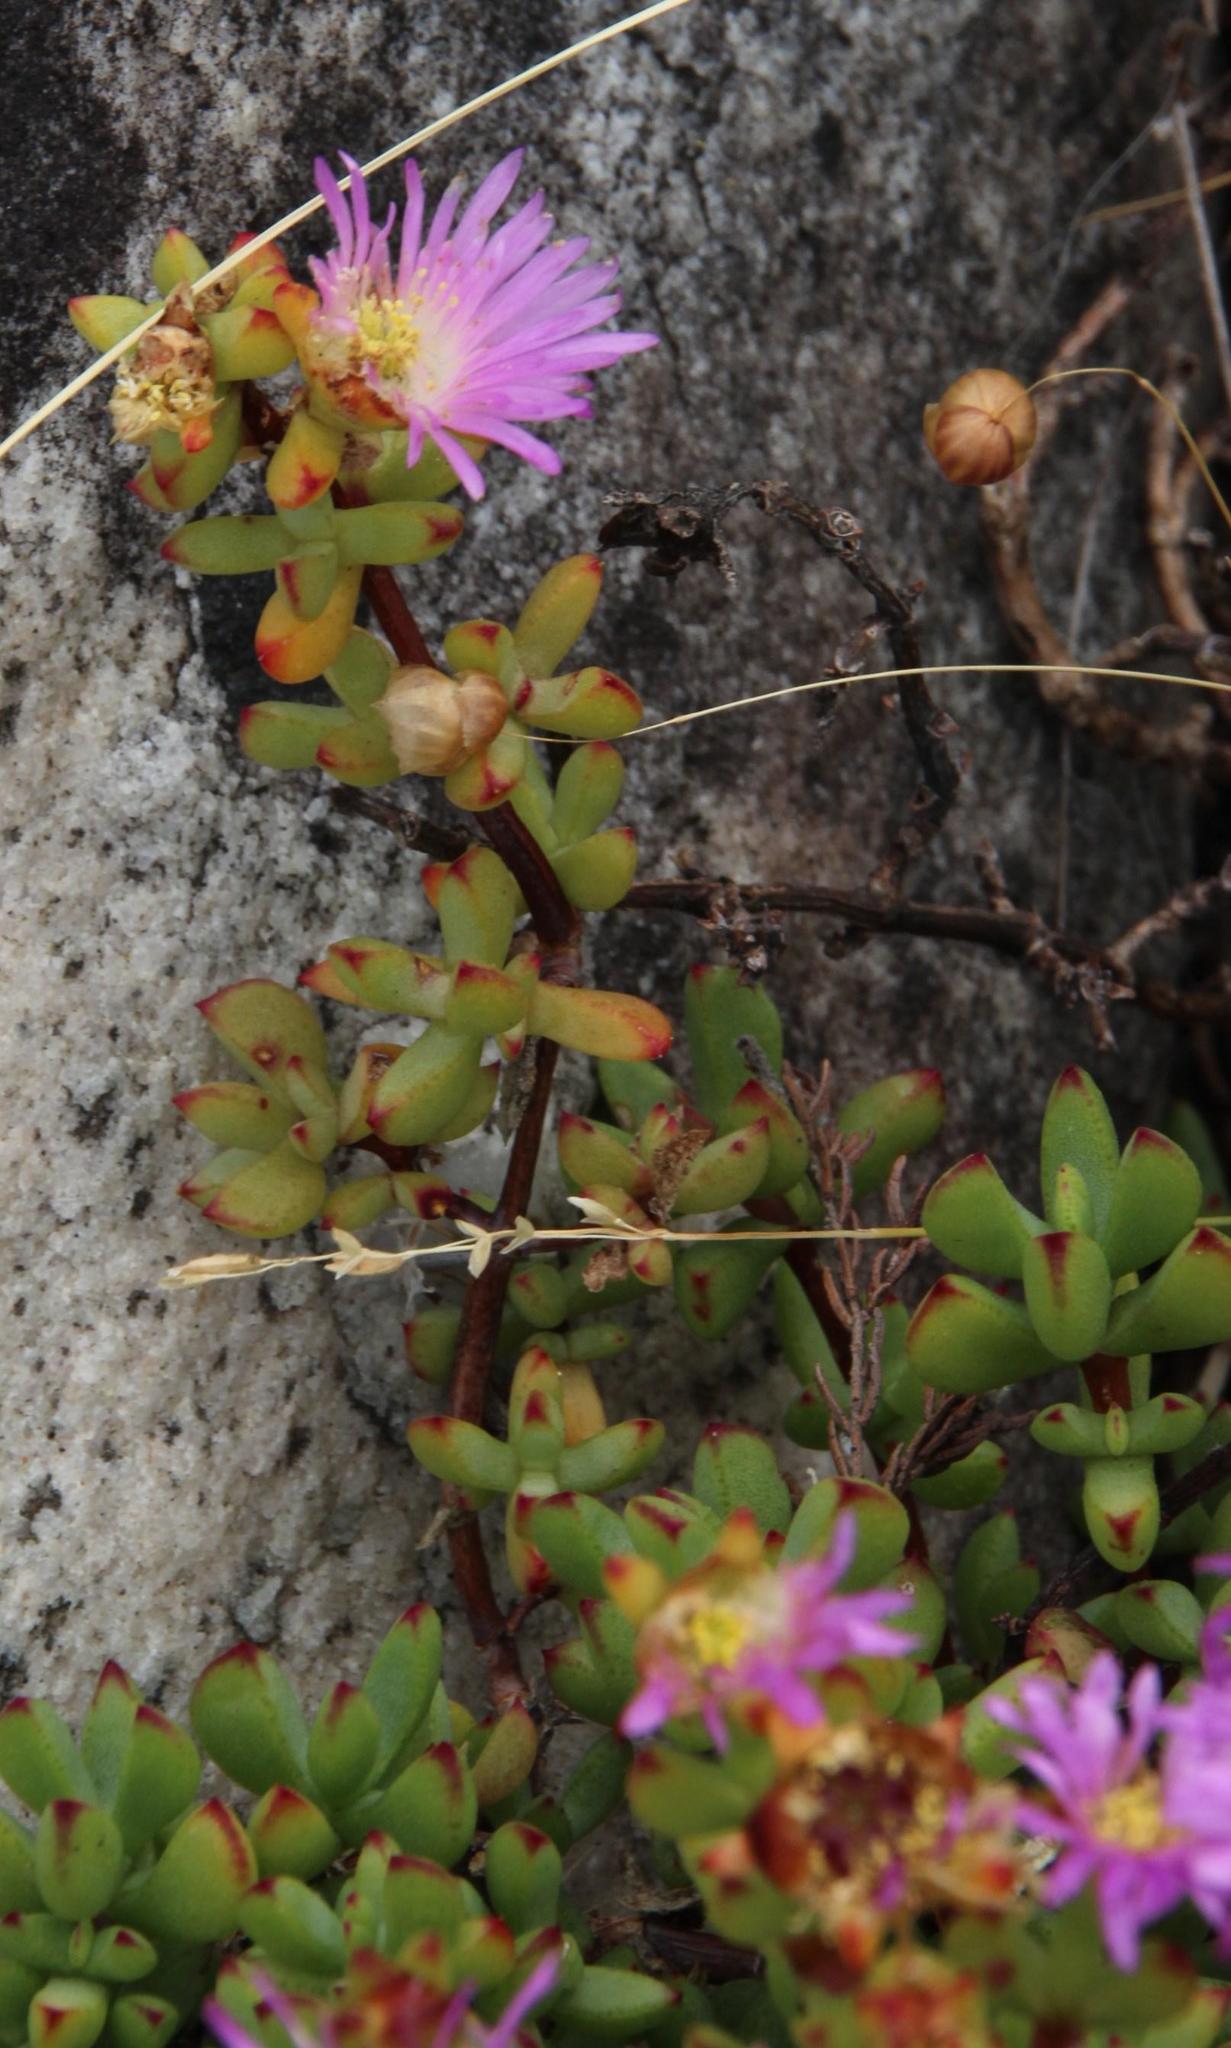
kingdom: Plantae
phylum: Tracheophyta
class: Magnoliopsida
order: Caryophyllales
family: Aizoaceae
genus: Oscularia
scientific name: Oscularia falciformis
